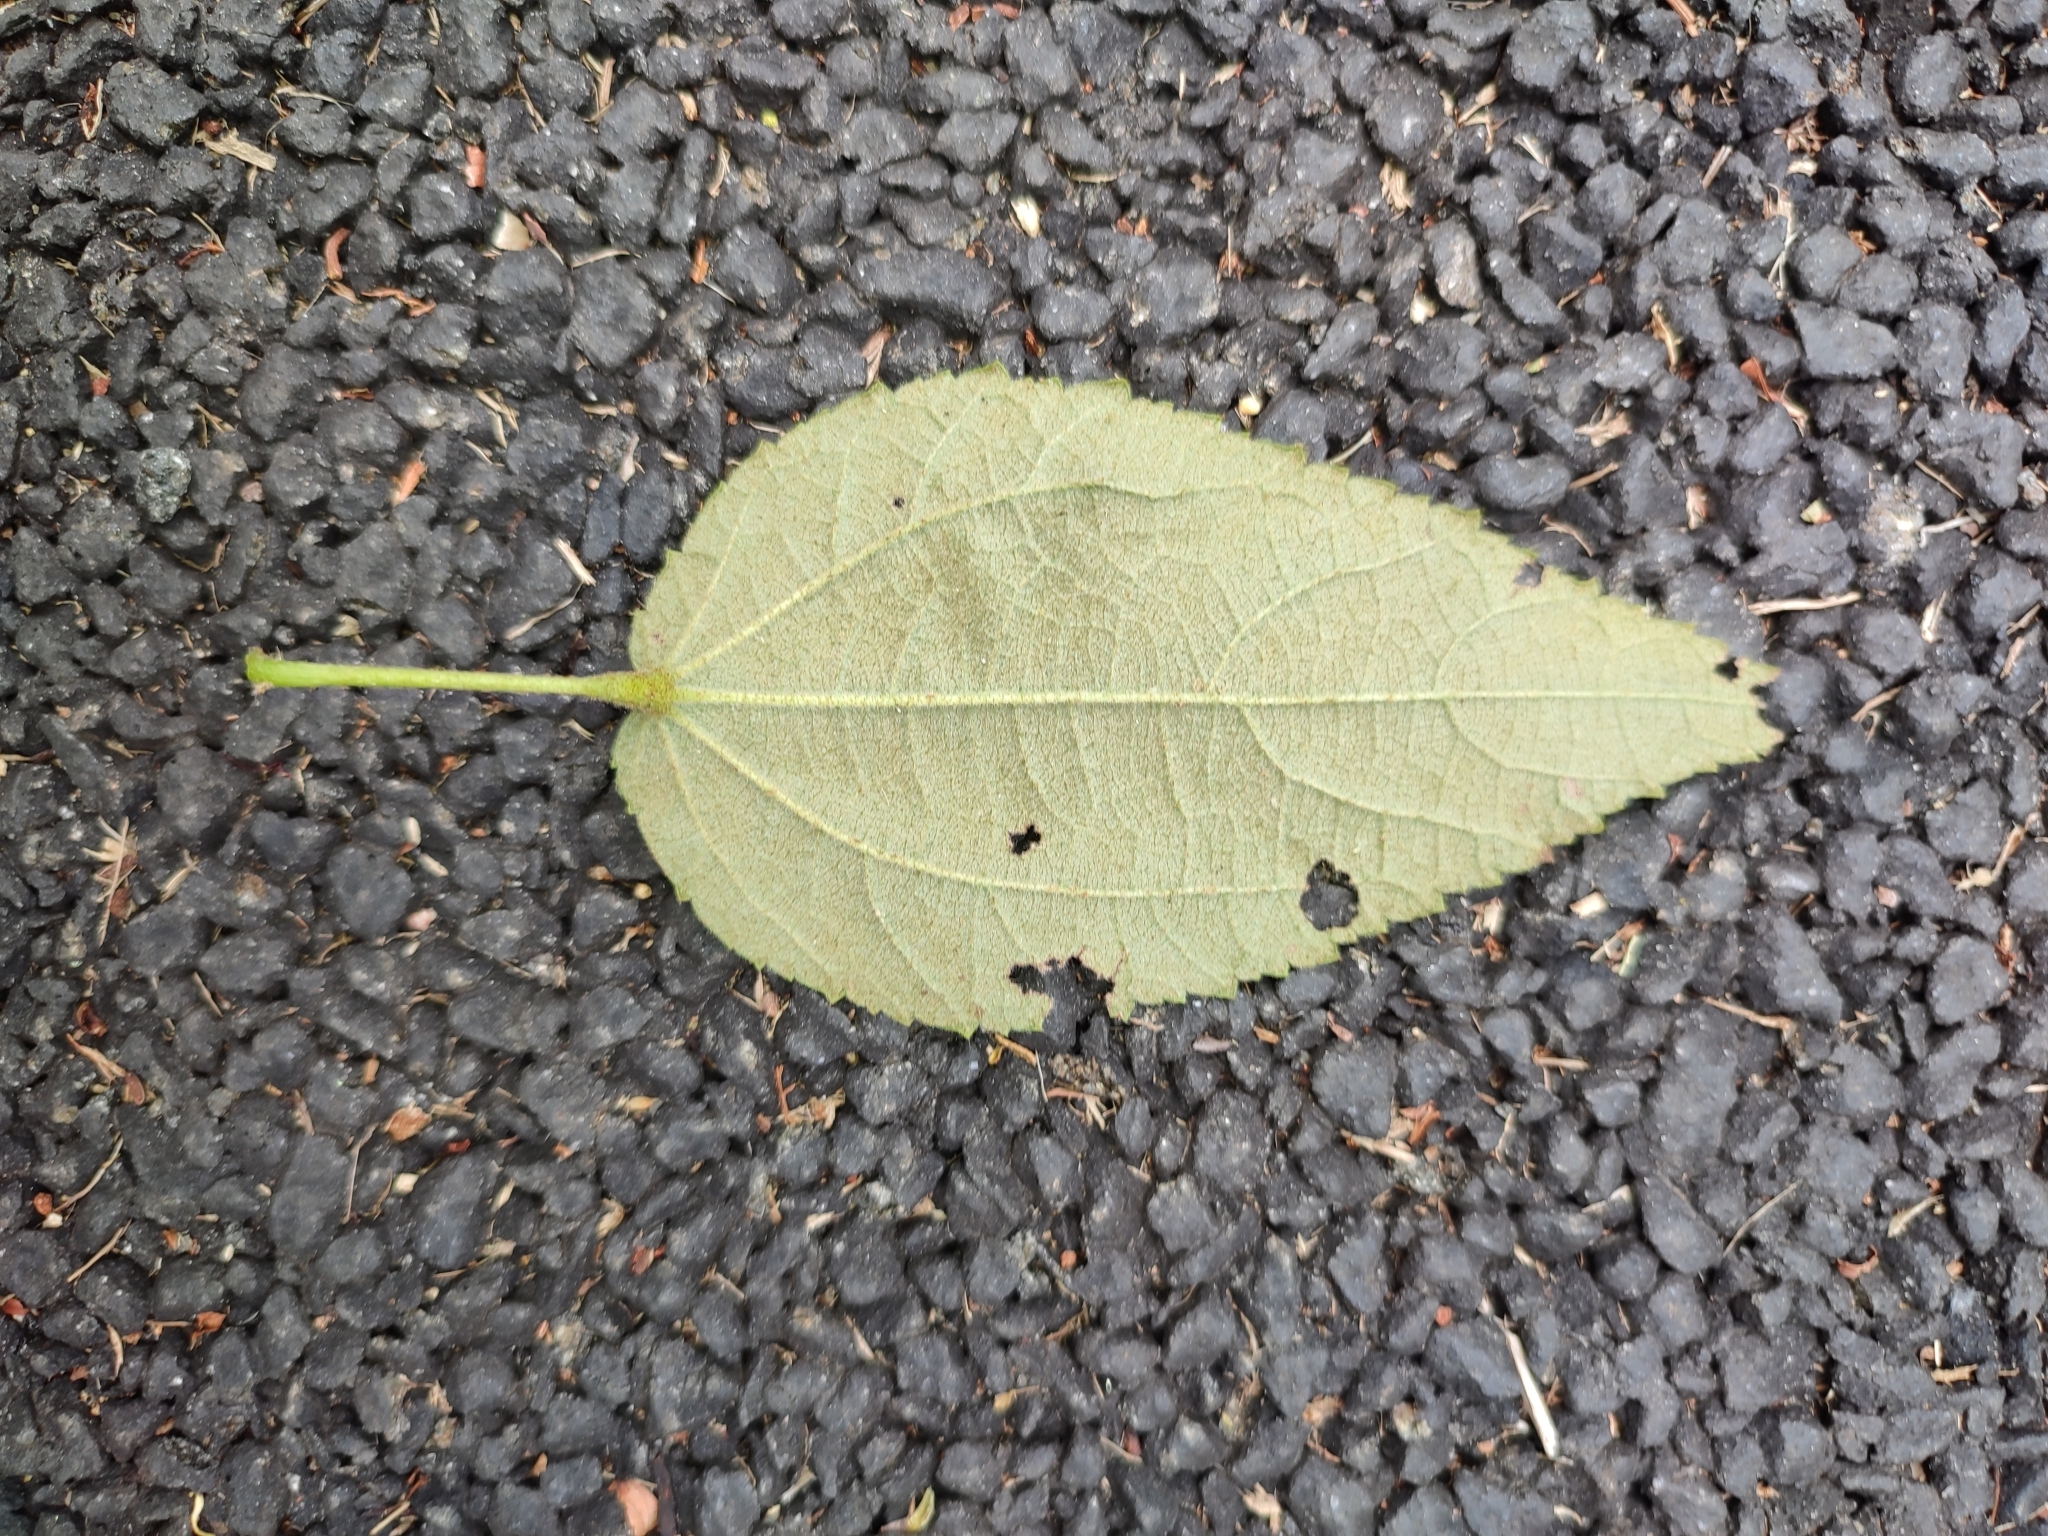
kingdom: Plantae
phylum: Tracheophyta
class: Magnoliopsida
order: Malvales
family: Malvaceae
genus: Triumfetta
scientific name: Triumfetta pilosa
